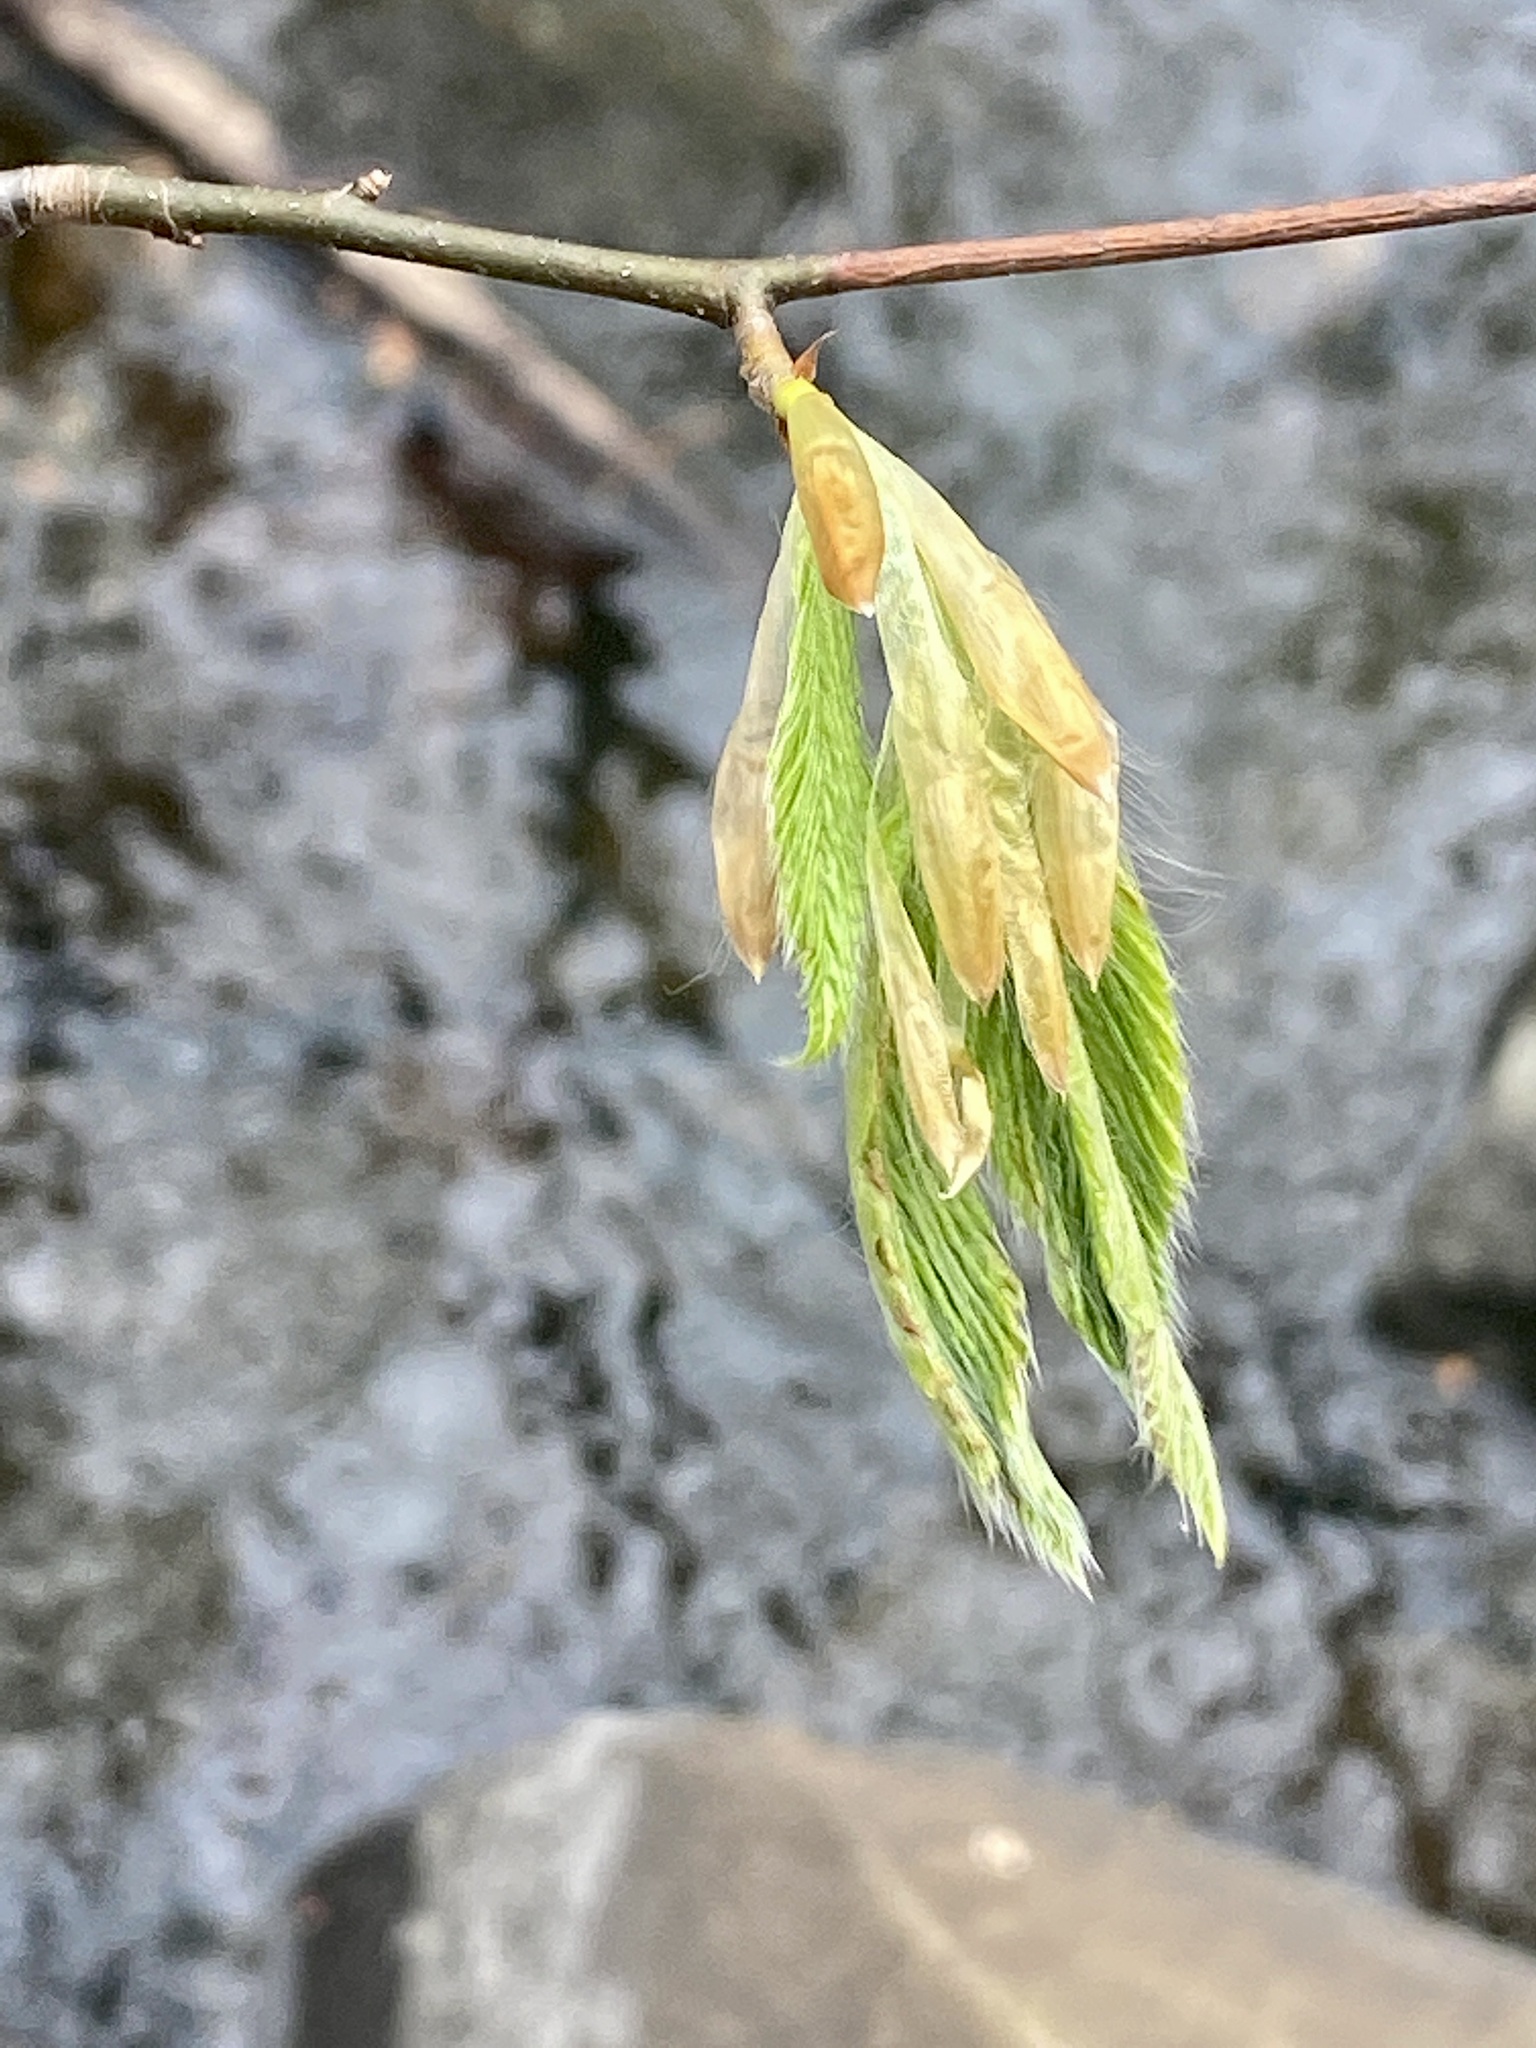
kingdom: Plantae
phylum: Tracheophyta
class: Magnoliopsida
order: Fagales
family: Fagaceae
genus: Fagus
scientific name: Fagus grandifolia
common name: American beech
